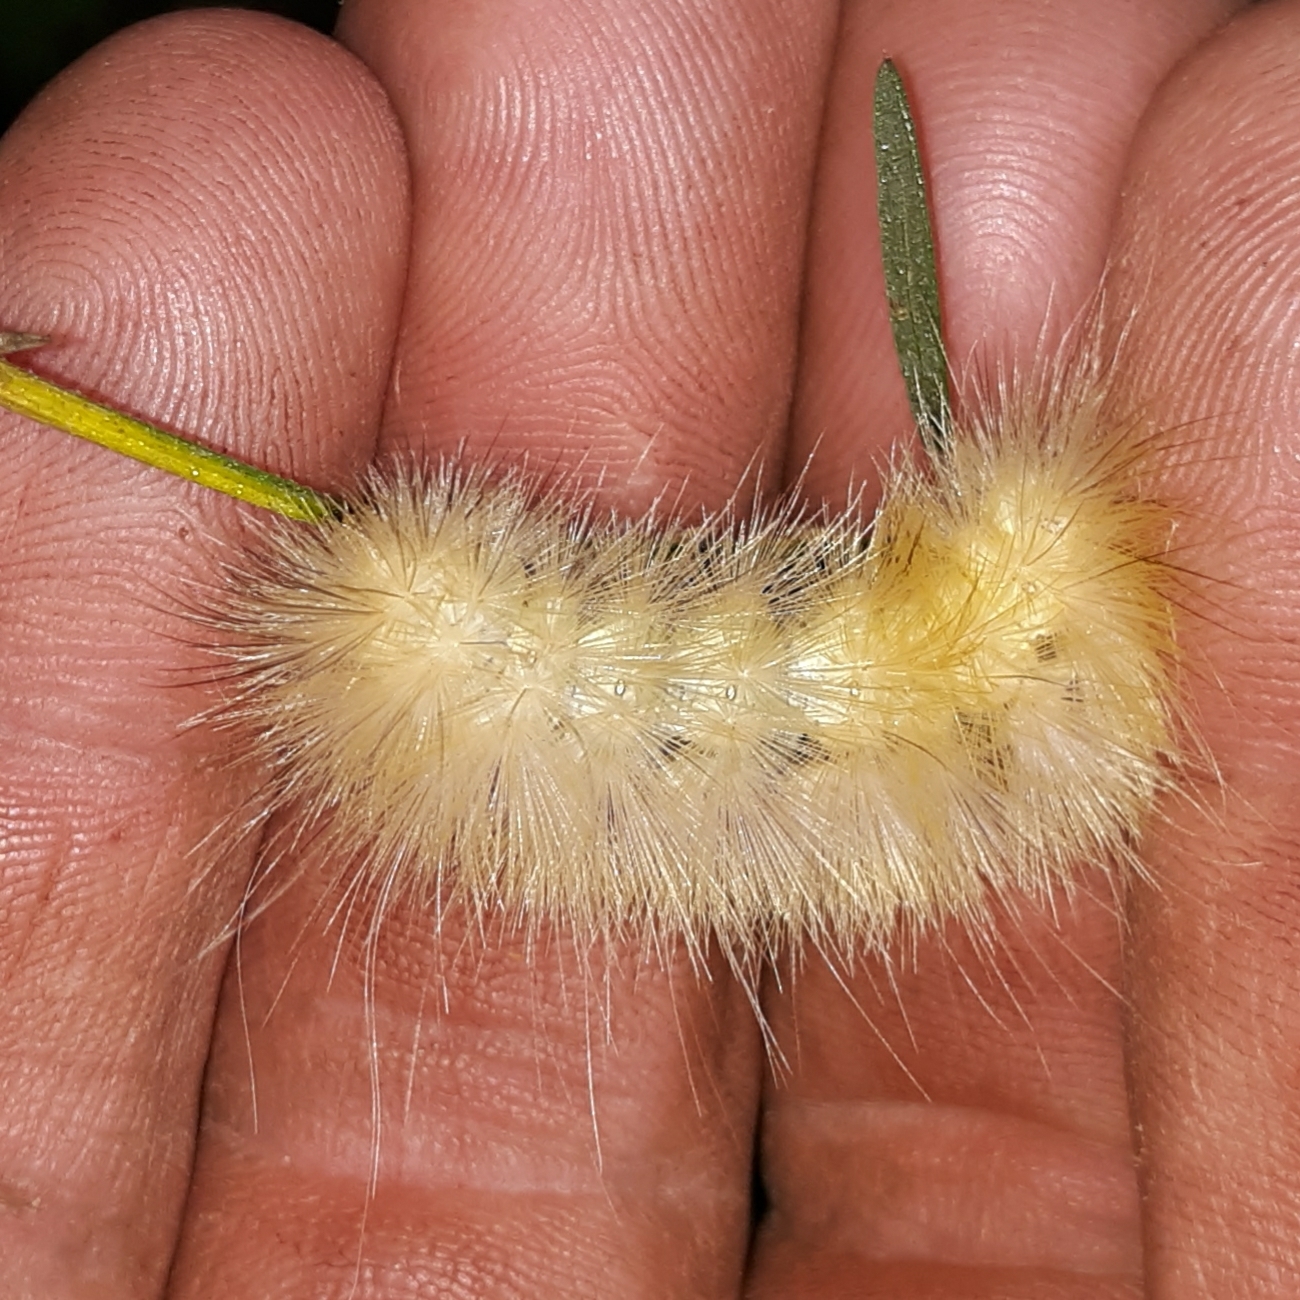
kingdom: Animalia
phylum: Arthropoda
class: Insecta
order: Lepidoptera
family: Erebidae
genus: Spilosoma
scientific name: Spilosoma virginica
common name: Virginia tiger moth
